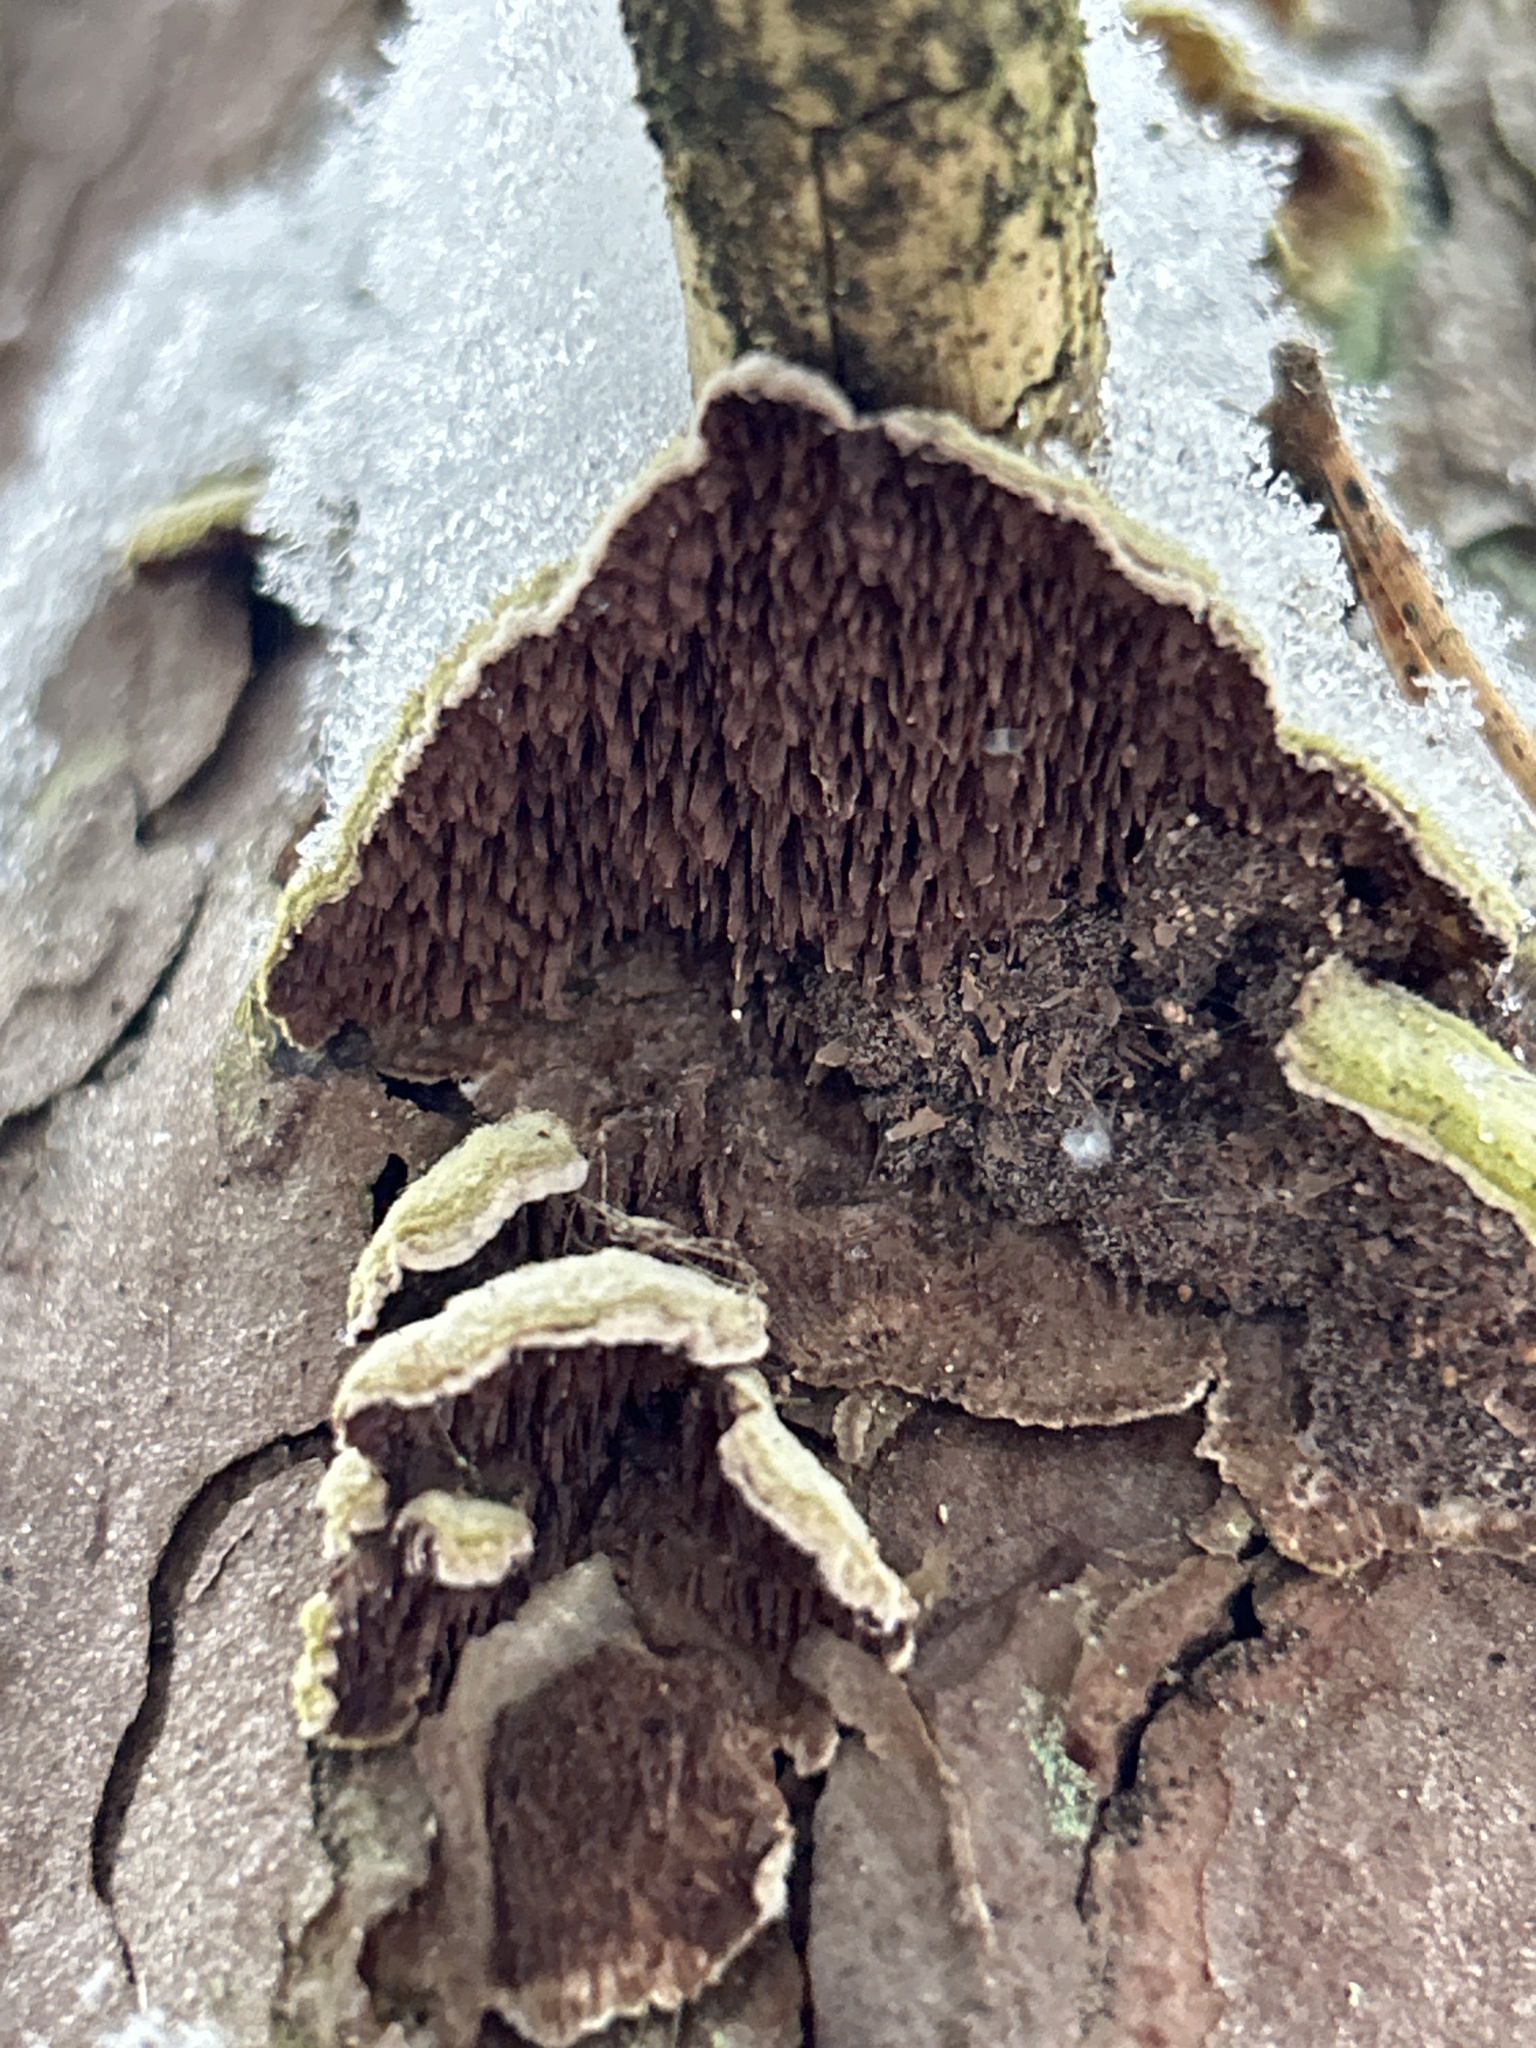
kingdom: Fungi
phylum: Basidiomycota
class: Agaricomycetes
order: Hymenochaetales
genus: Trichaptum
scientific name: Trichaptum fuscoviolaceum
